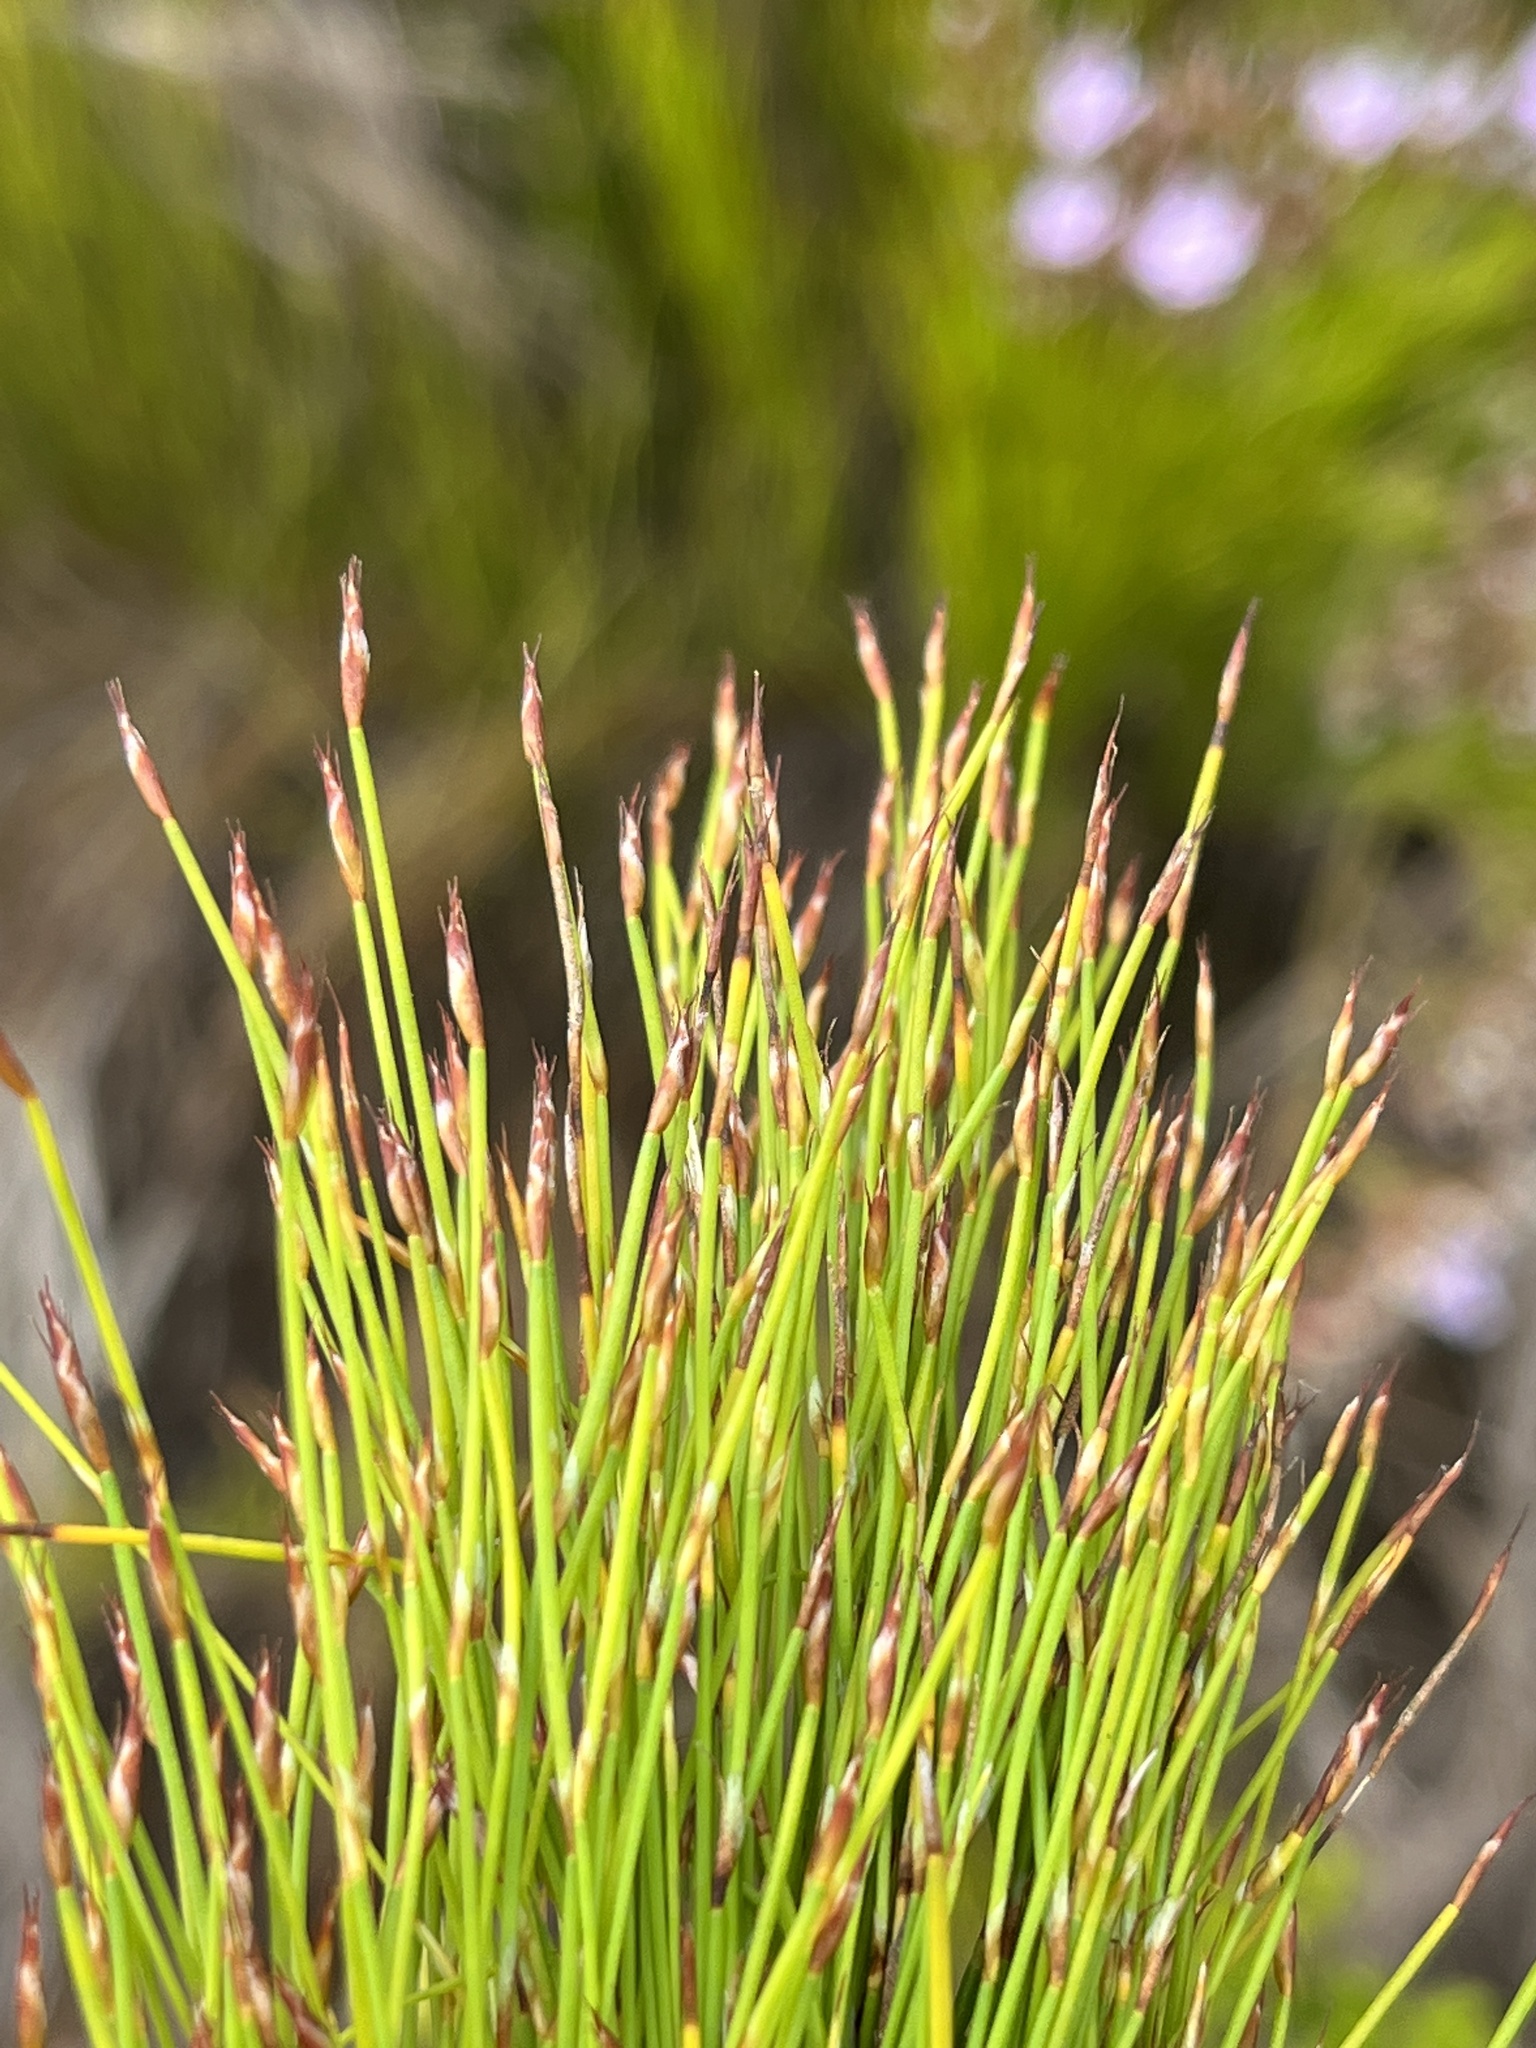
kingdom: Plantae
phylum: Tracheophyta
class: Liliopsida
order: Poales
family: Restionaceae
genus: Restio
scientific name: Restio leptoclados
